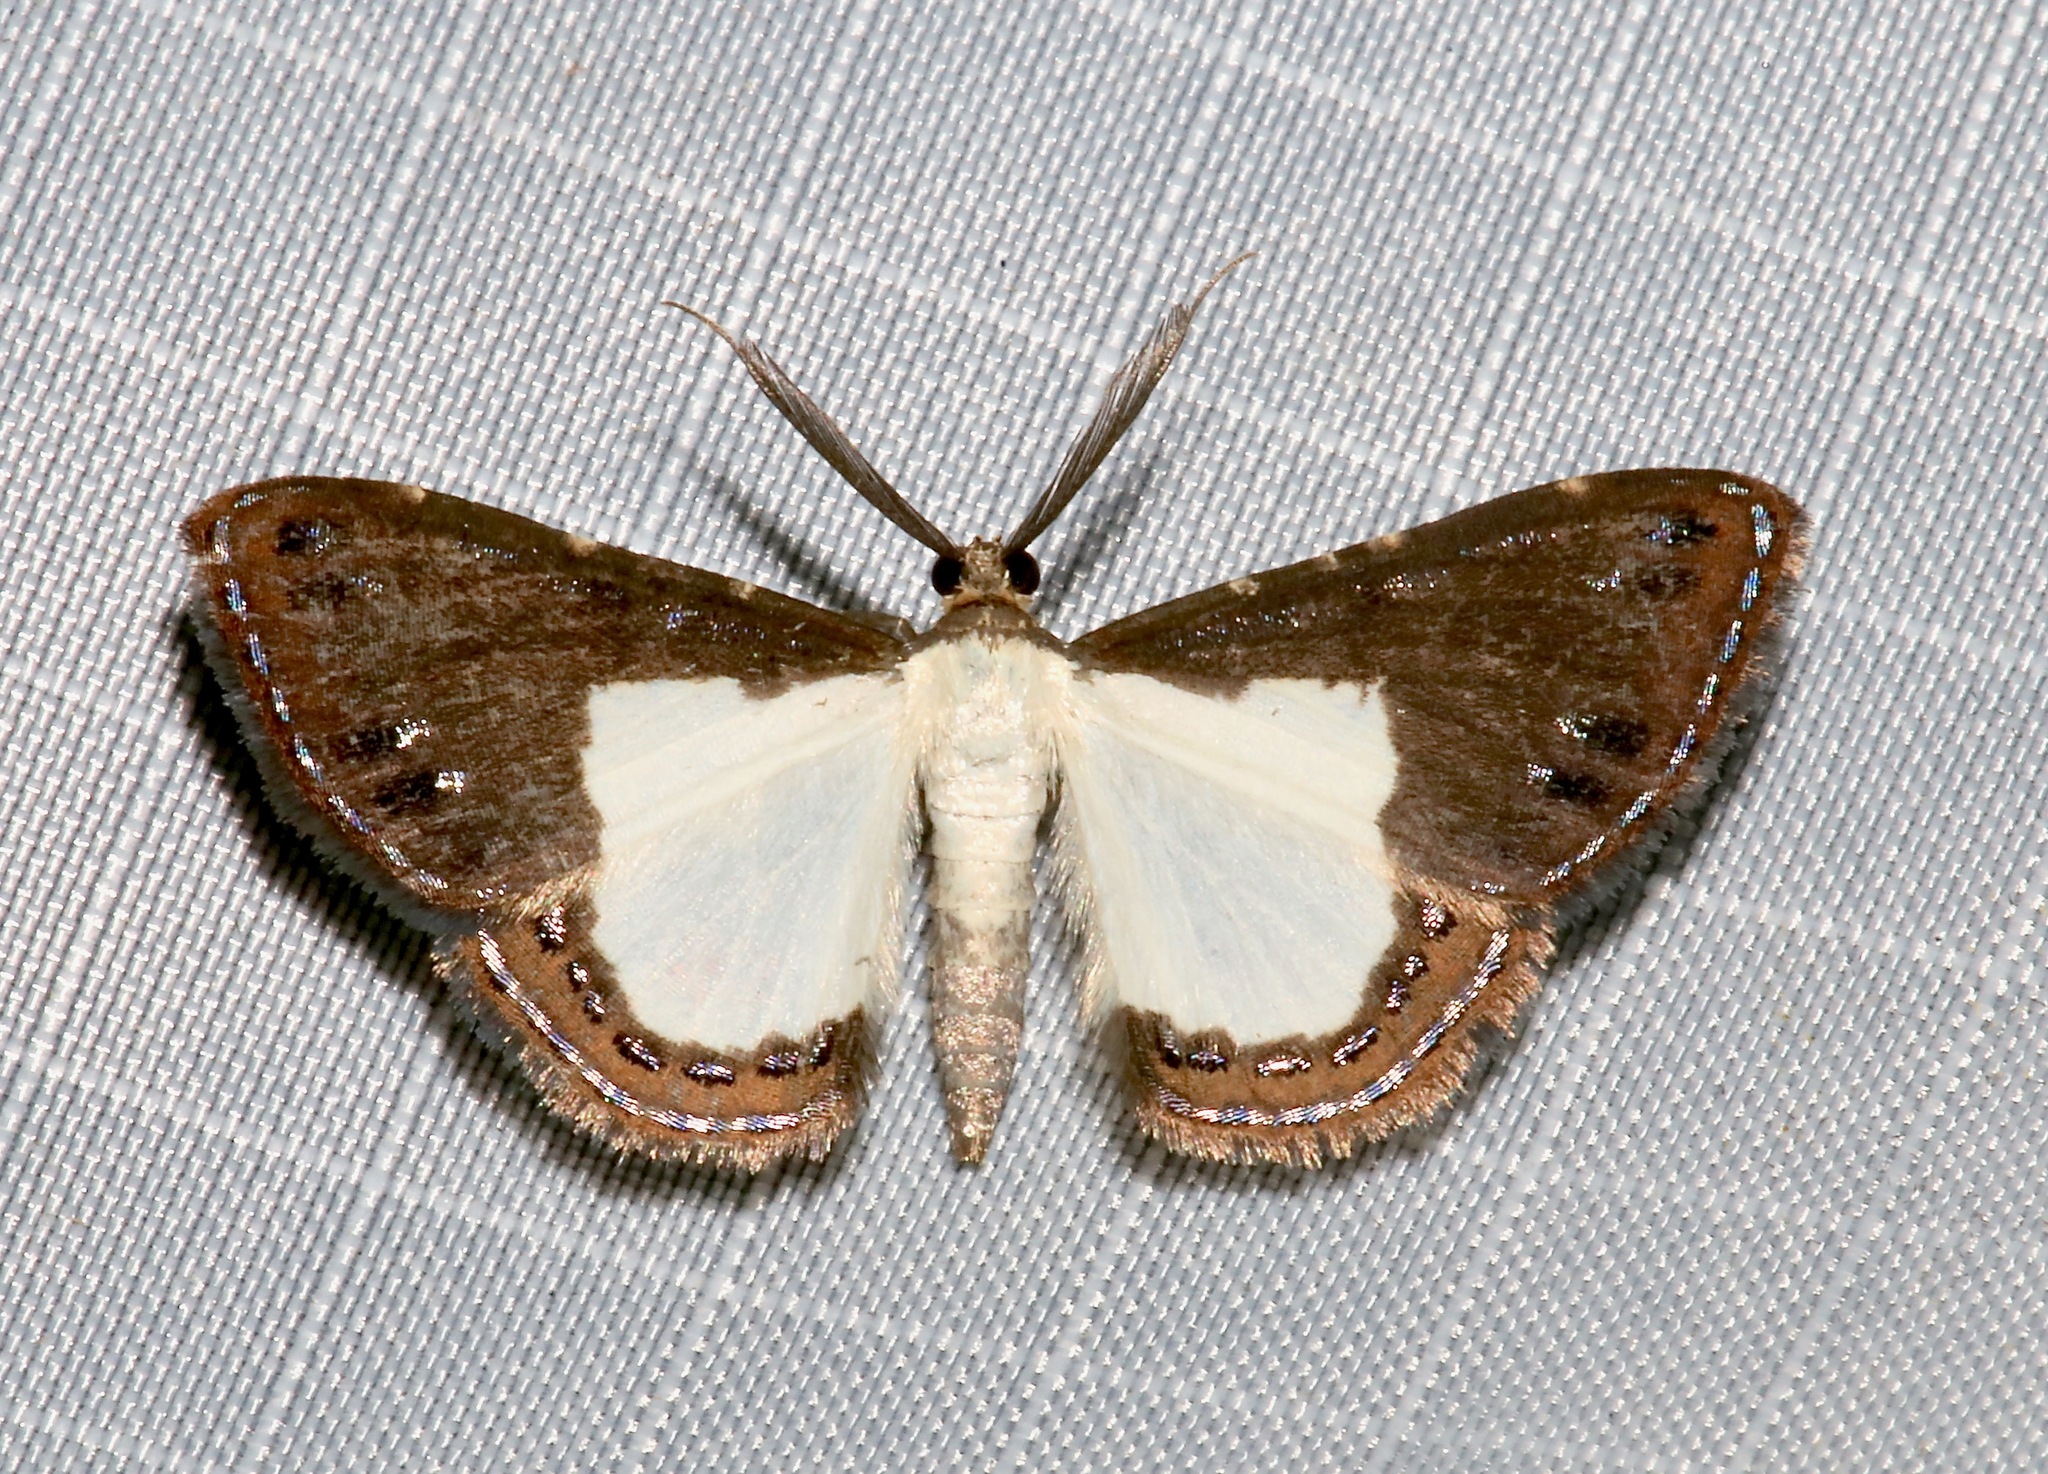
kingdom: Animalia
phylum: Arthropoda
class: Insecta
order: Lepidoptera
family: Geometridae
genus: Aplogompha
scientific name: Aplogompha riofrio
